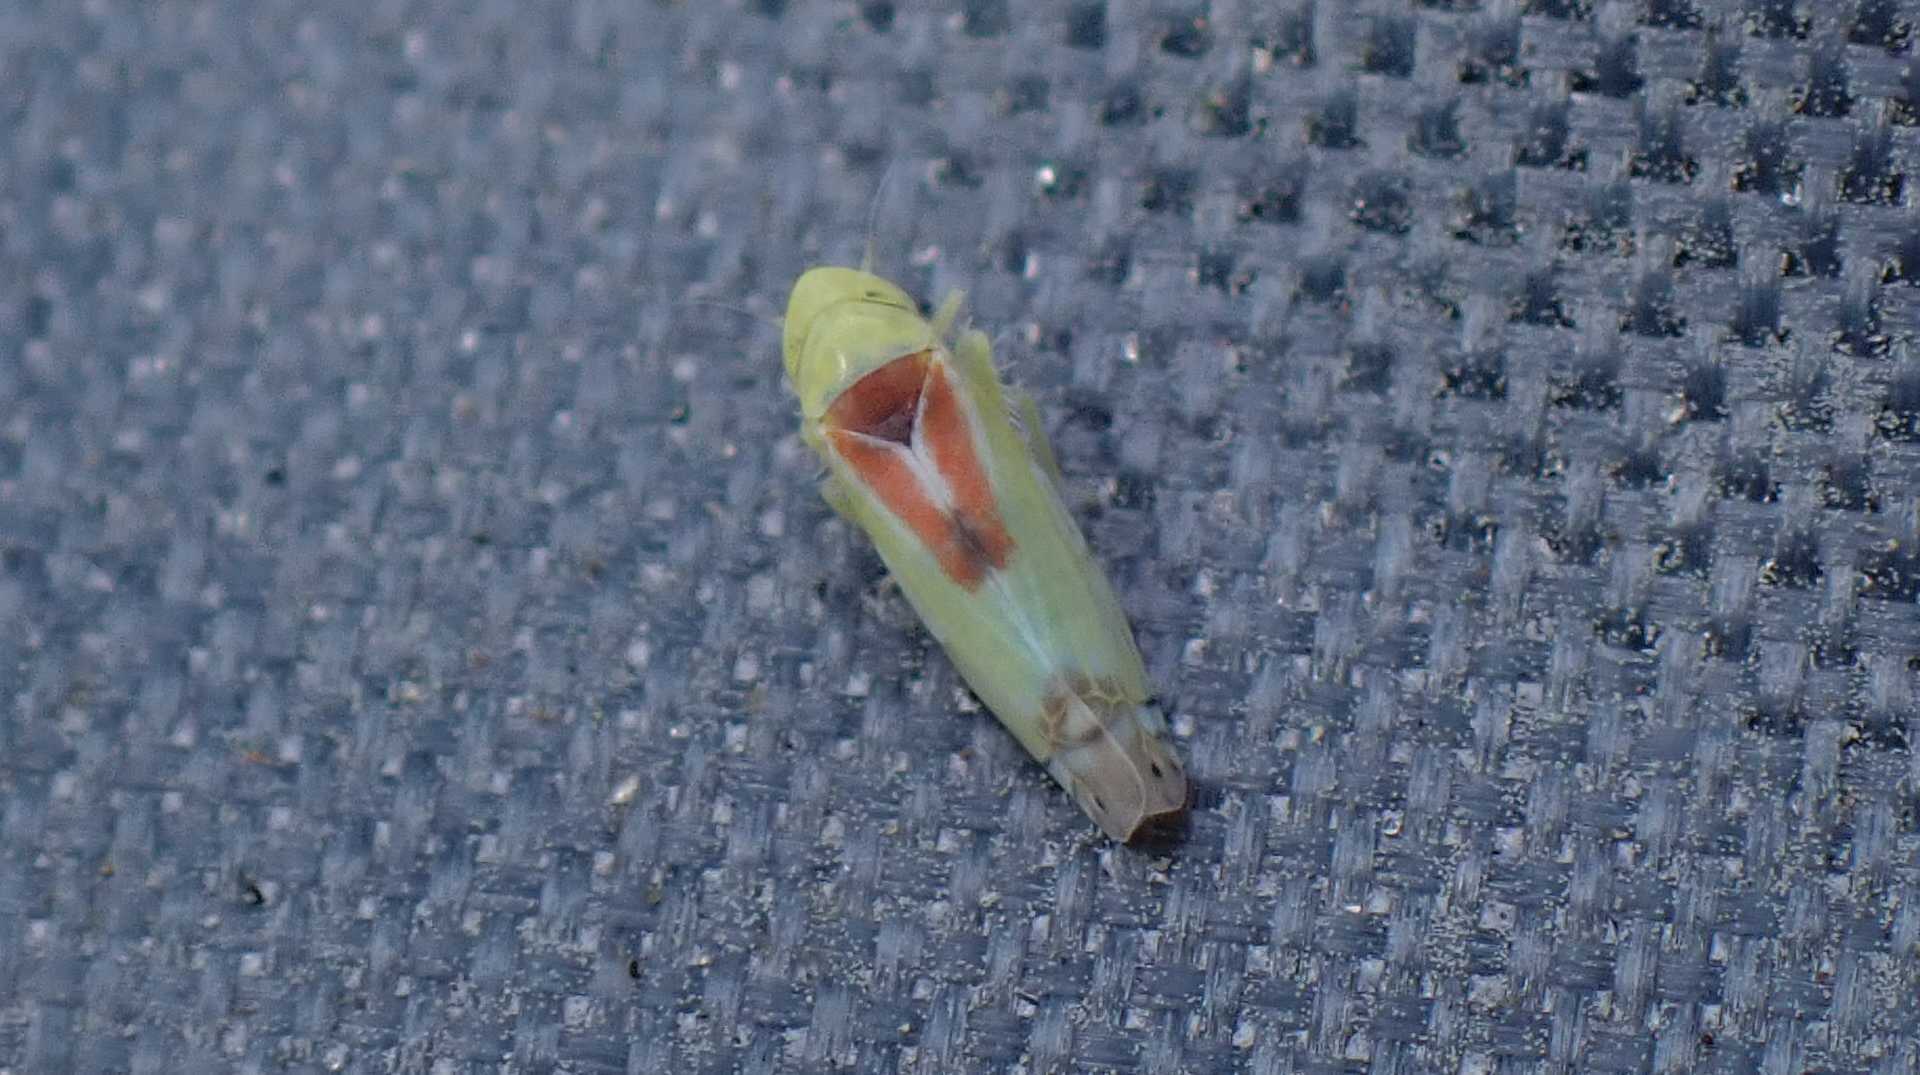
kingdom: Animalia
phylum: Arthropoda
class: Insecta
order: Hemiptera
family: Cicadellidae
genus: Zyginella
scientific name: Zyginella pulchra
